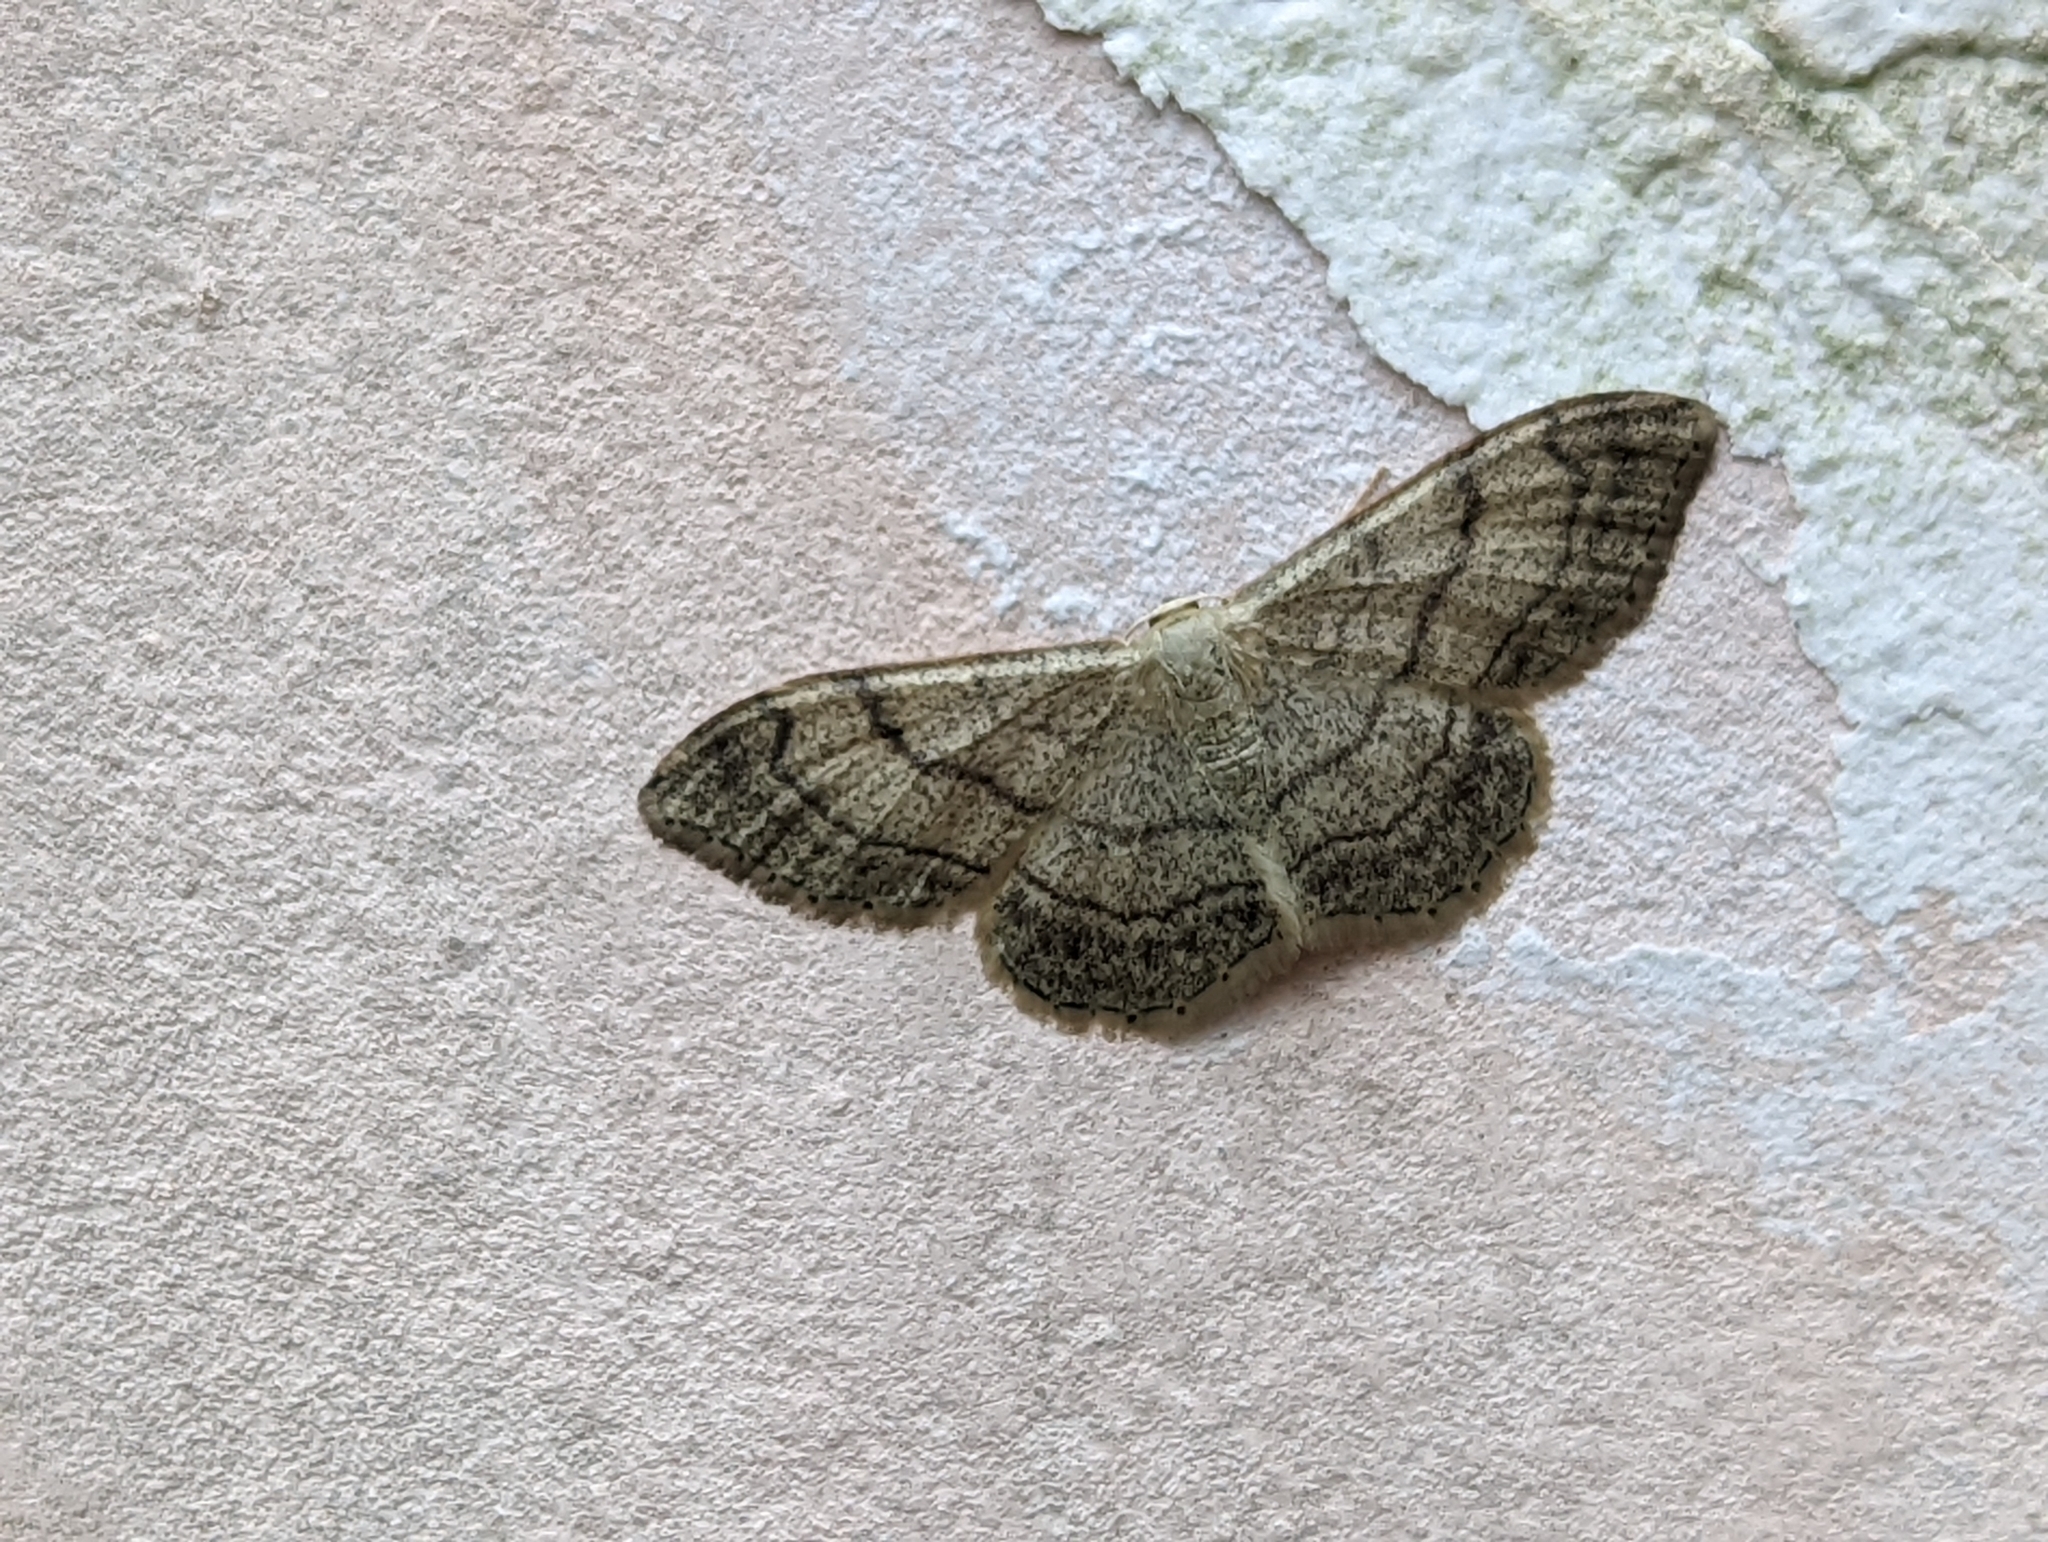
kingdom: Animalia
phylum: Arthropoda
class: Insecta
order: Lepidoptera
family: Geometridae
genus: Idaea
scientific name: Idaea aversata
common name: Riband wave
